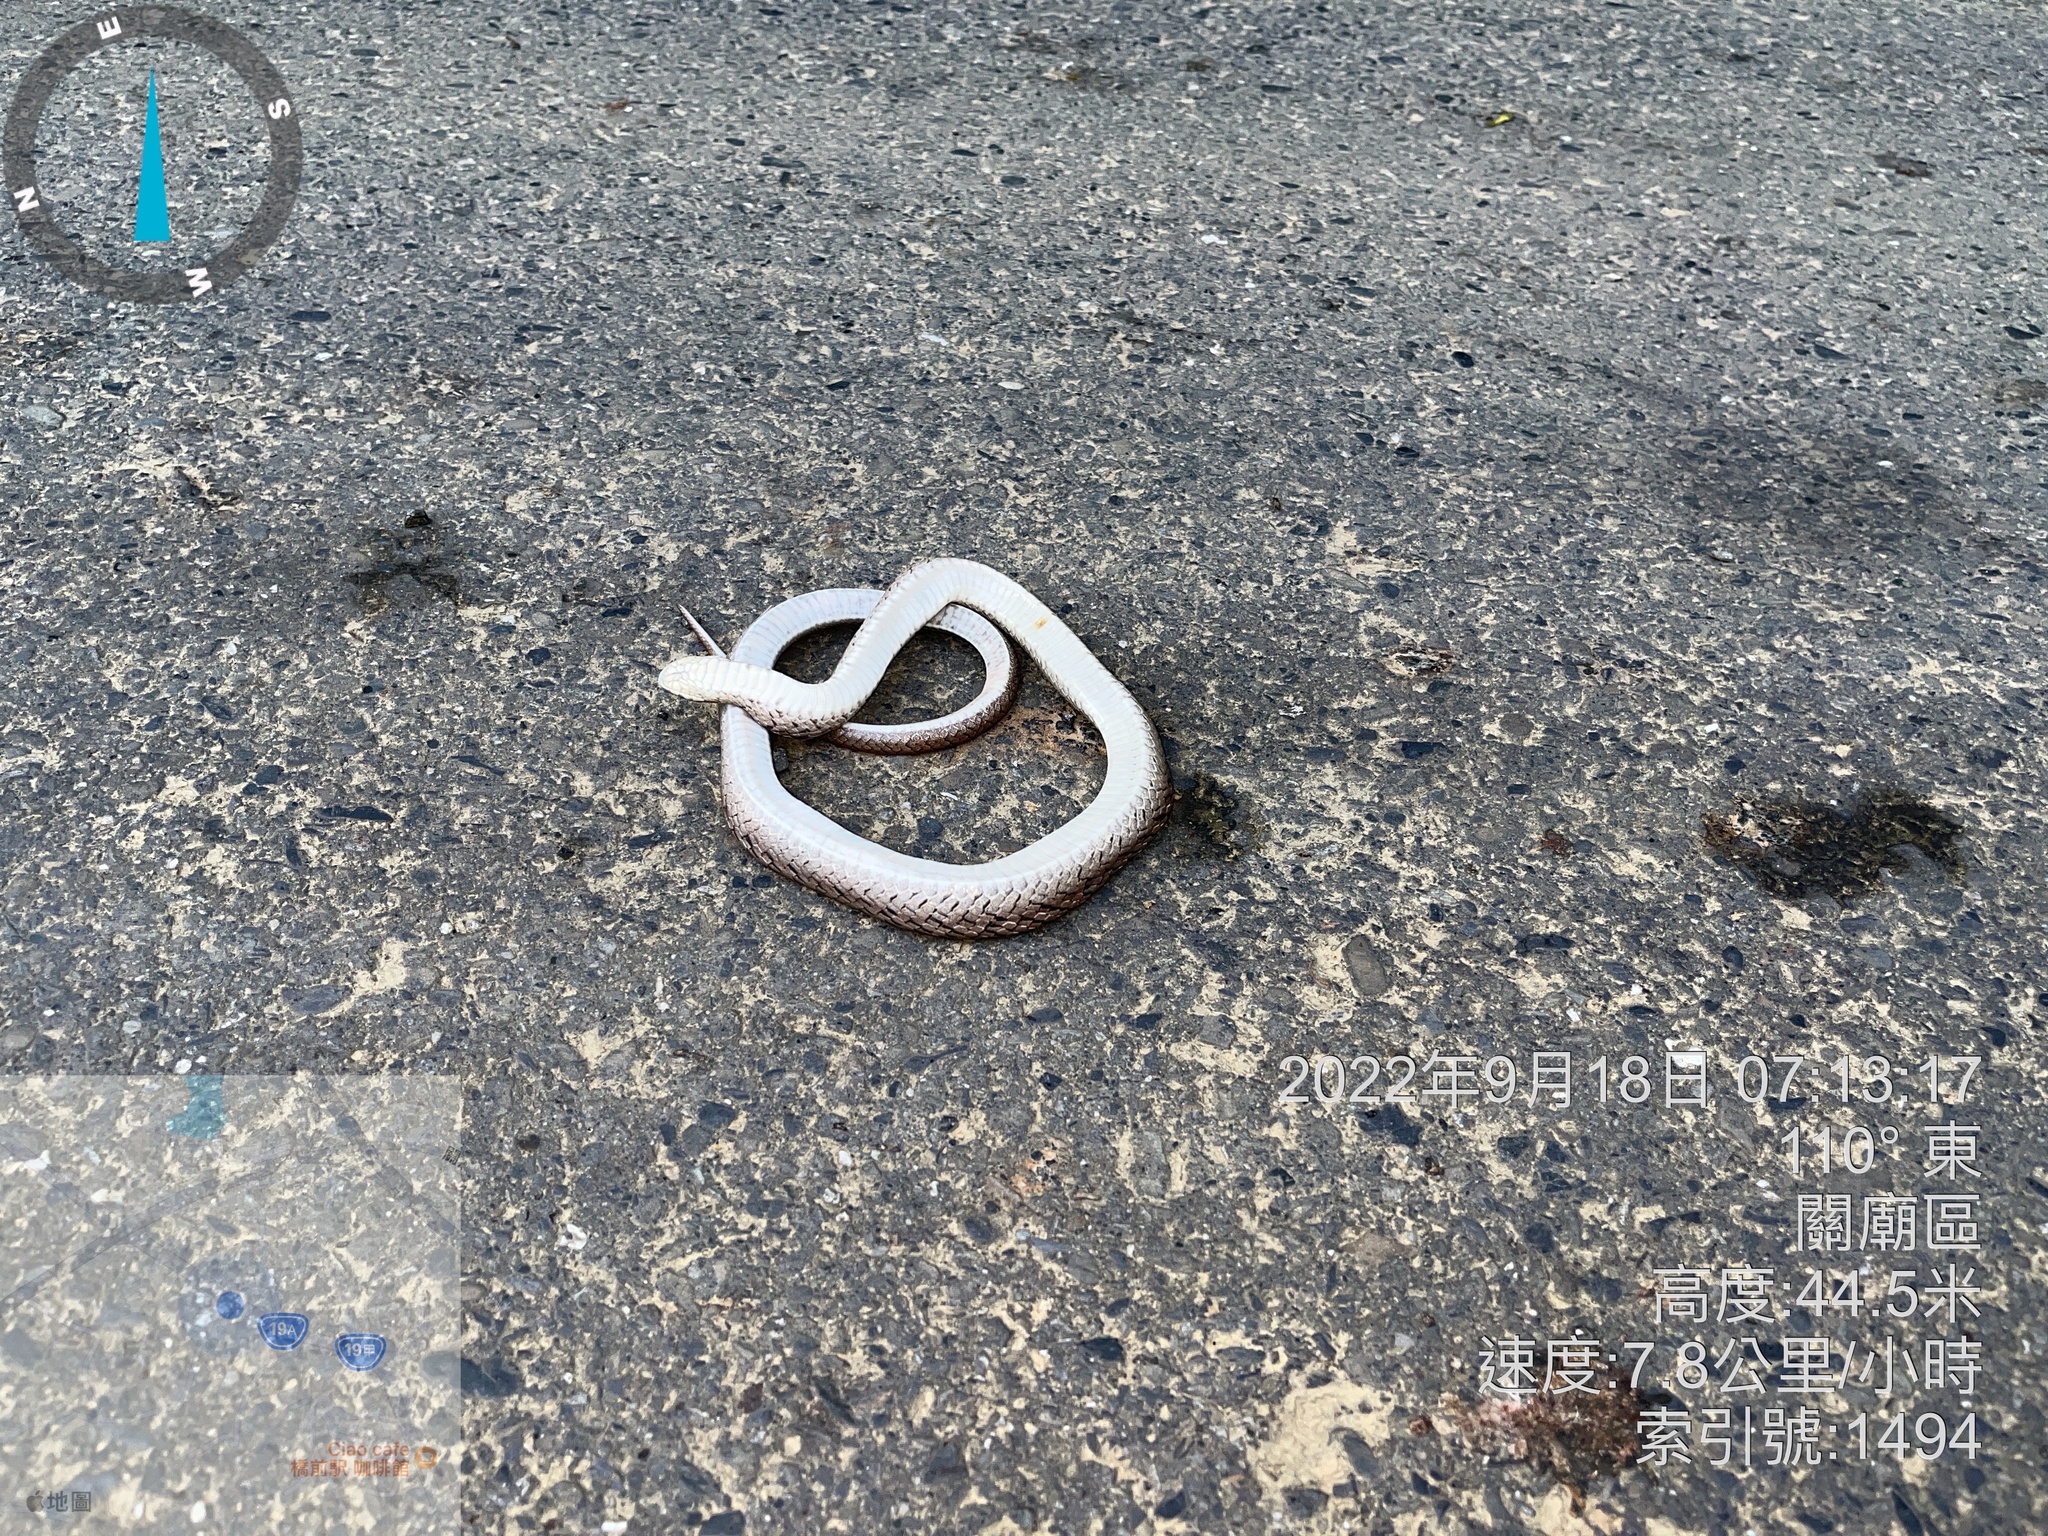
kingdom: Animalia
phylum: Chordata
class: Squamata
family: Colubridae
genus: Oligodon
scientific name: Oligodon formosanus
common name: Formosa kukri snake
